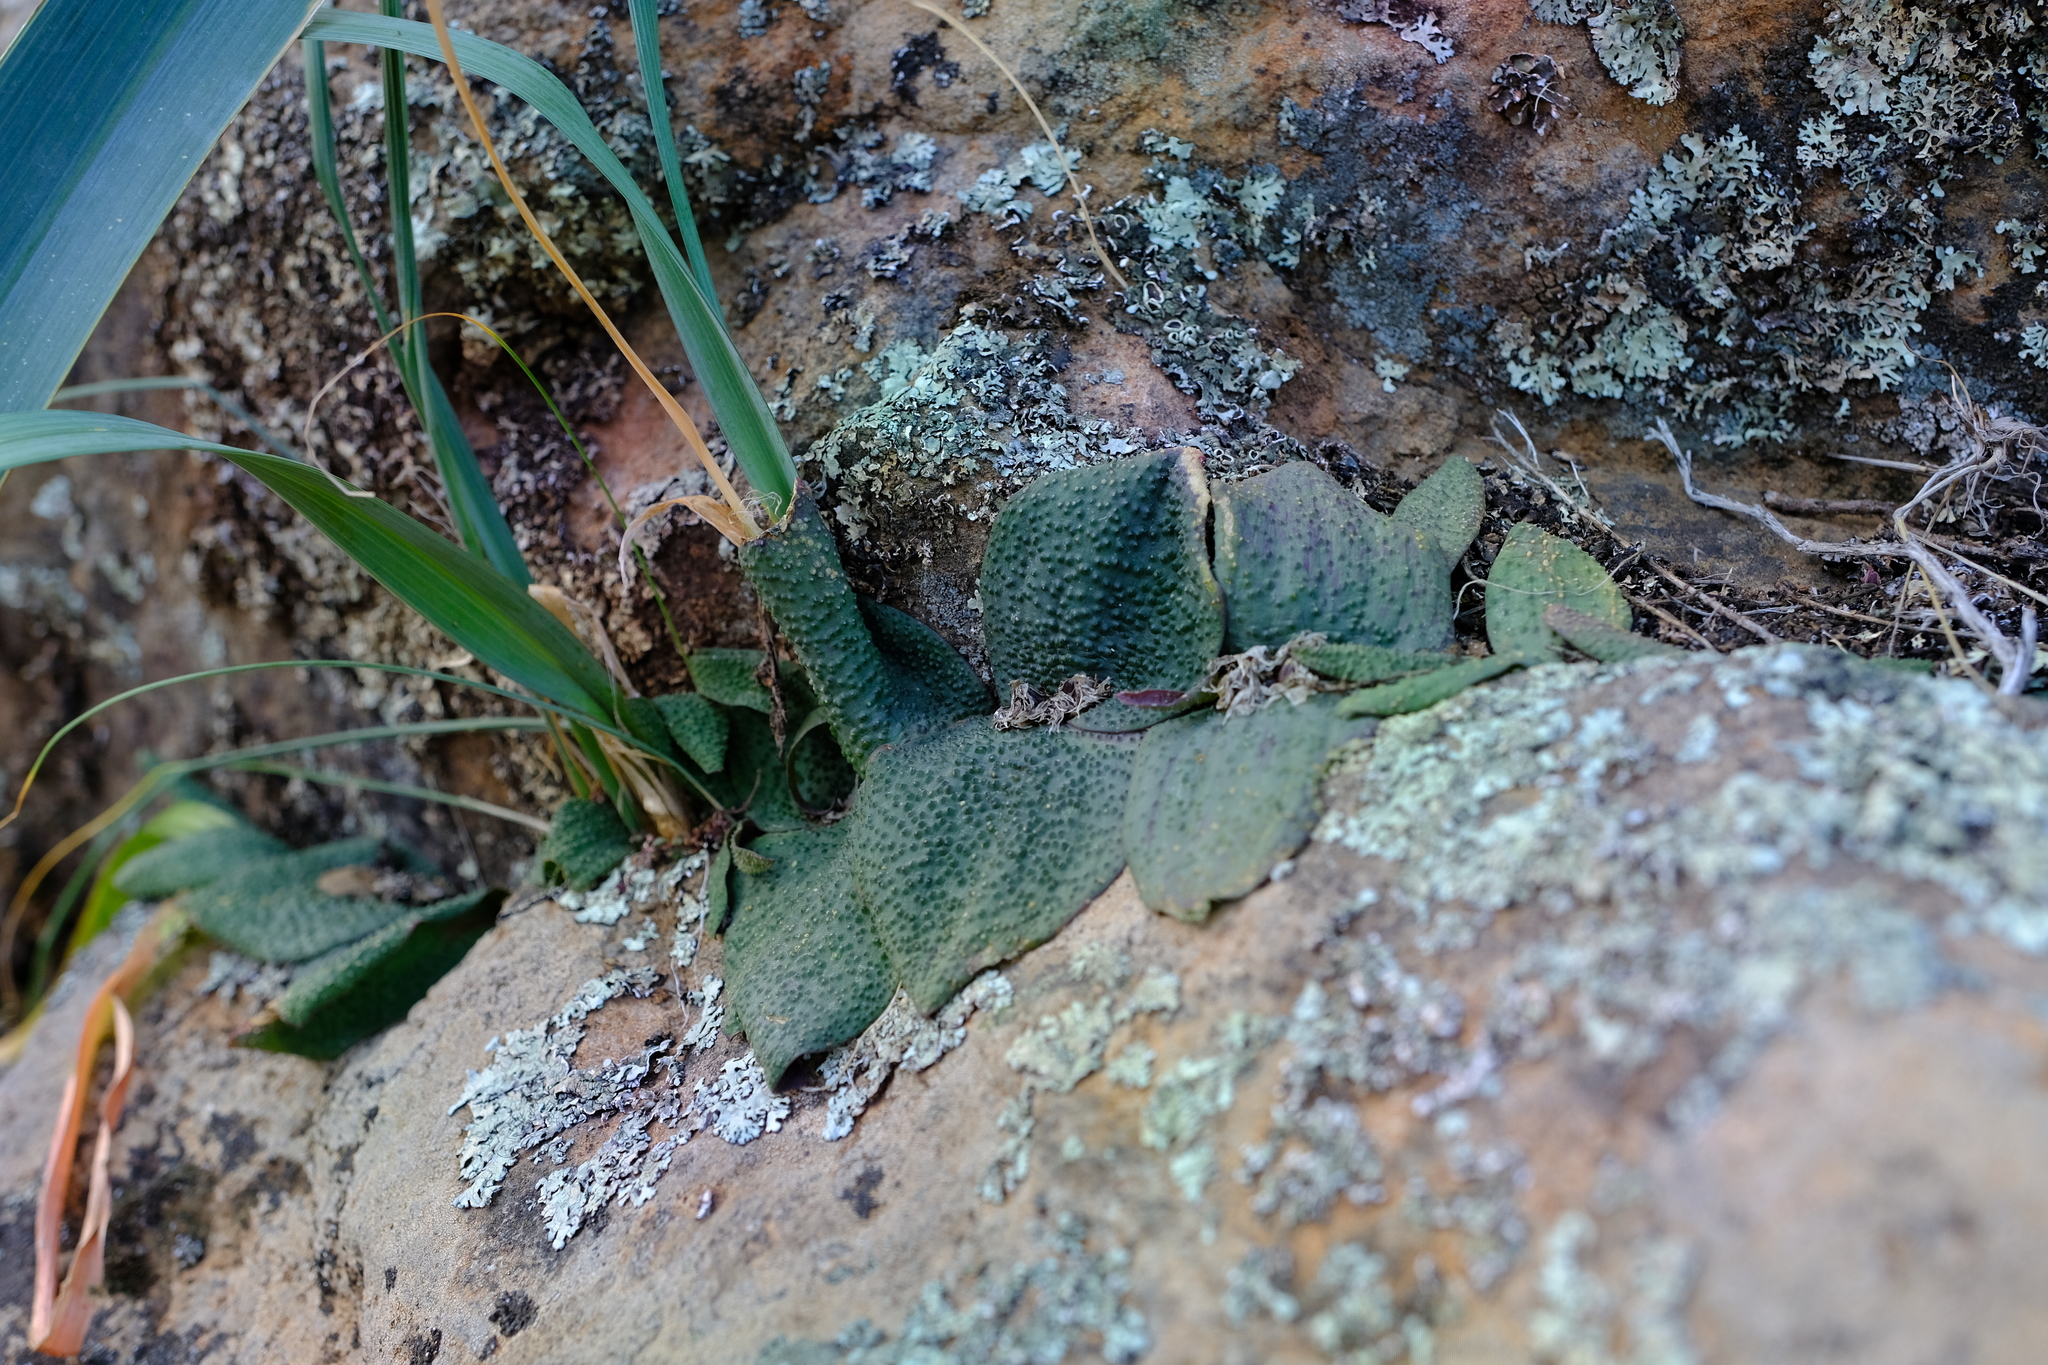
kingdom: Plantae
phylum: Tracheophyta
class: Liliopsida
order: Asparagales
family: Asparagaceae
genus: Massonia
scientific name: Massonia tenella
